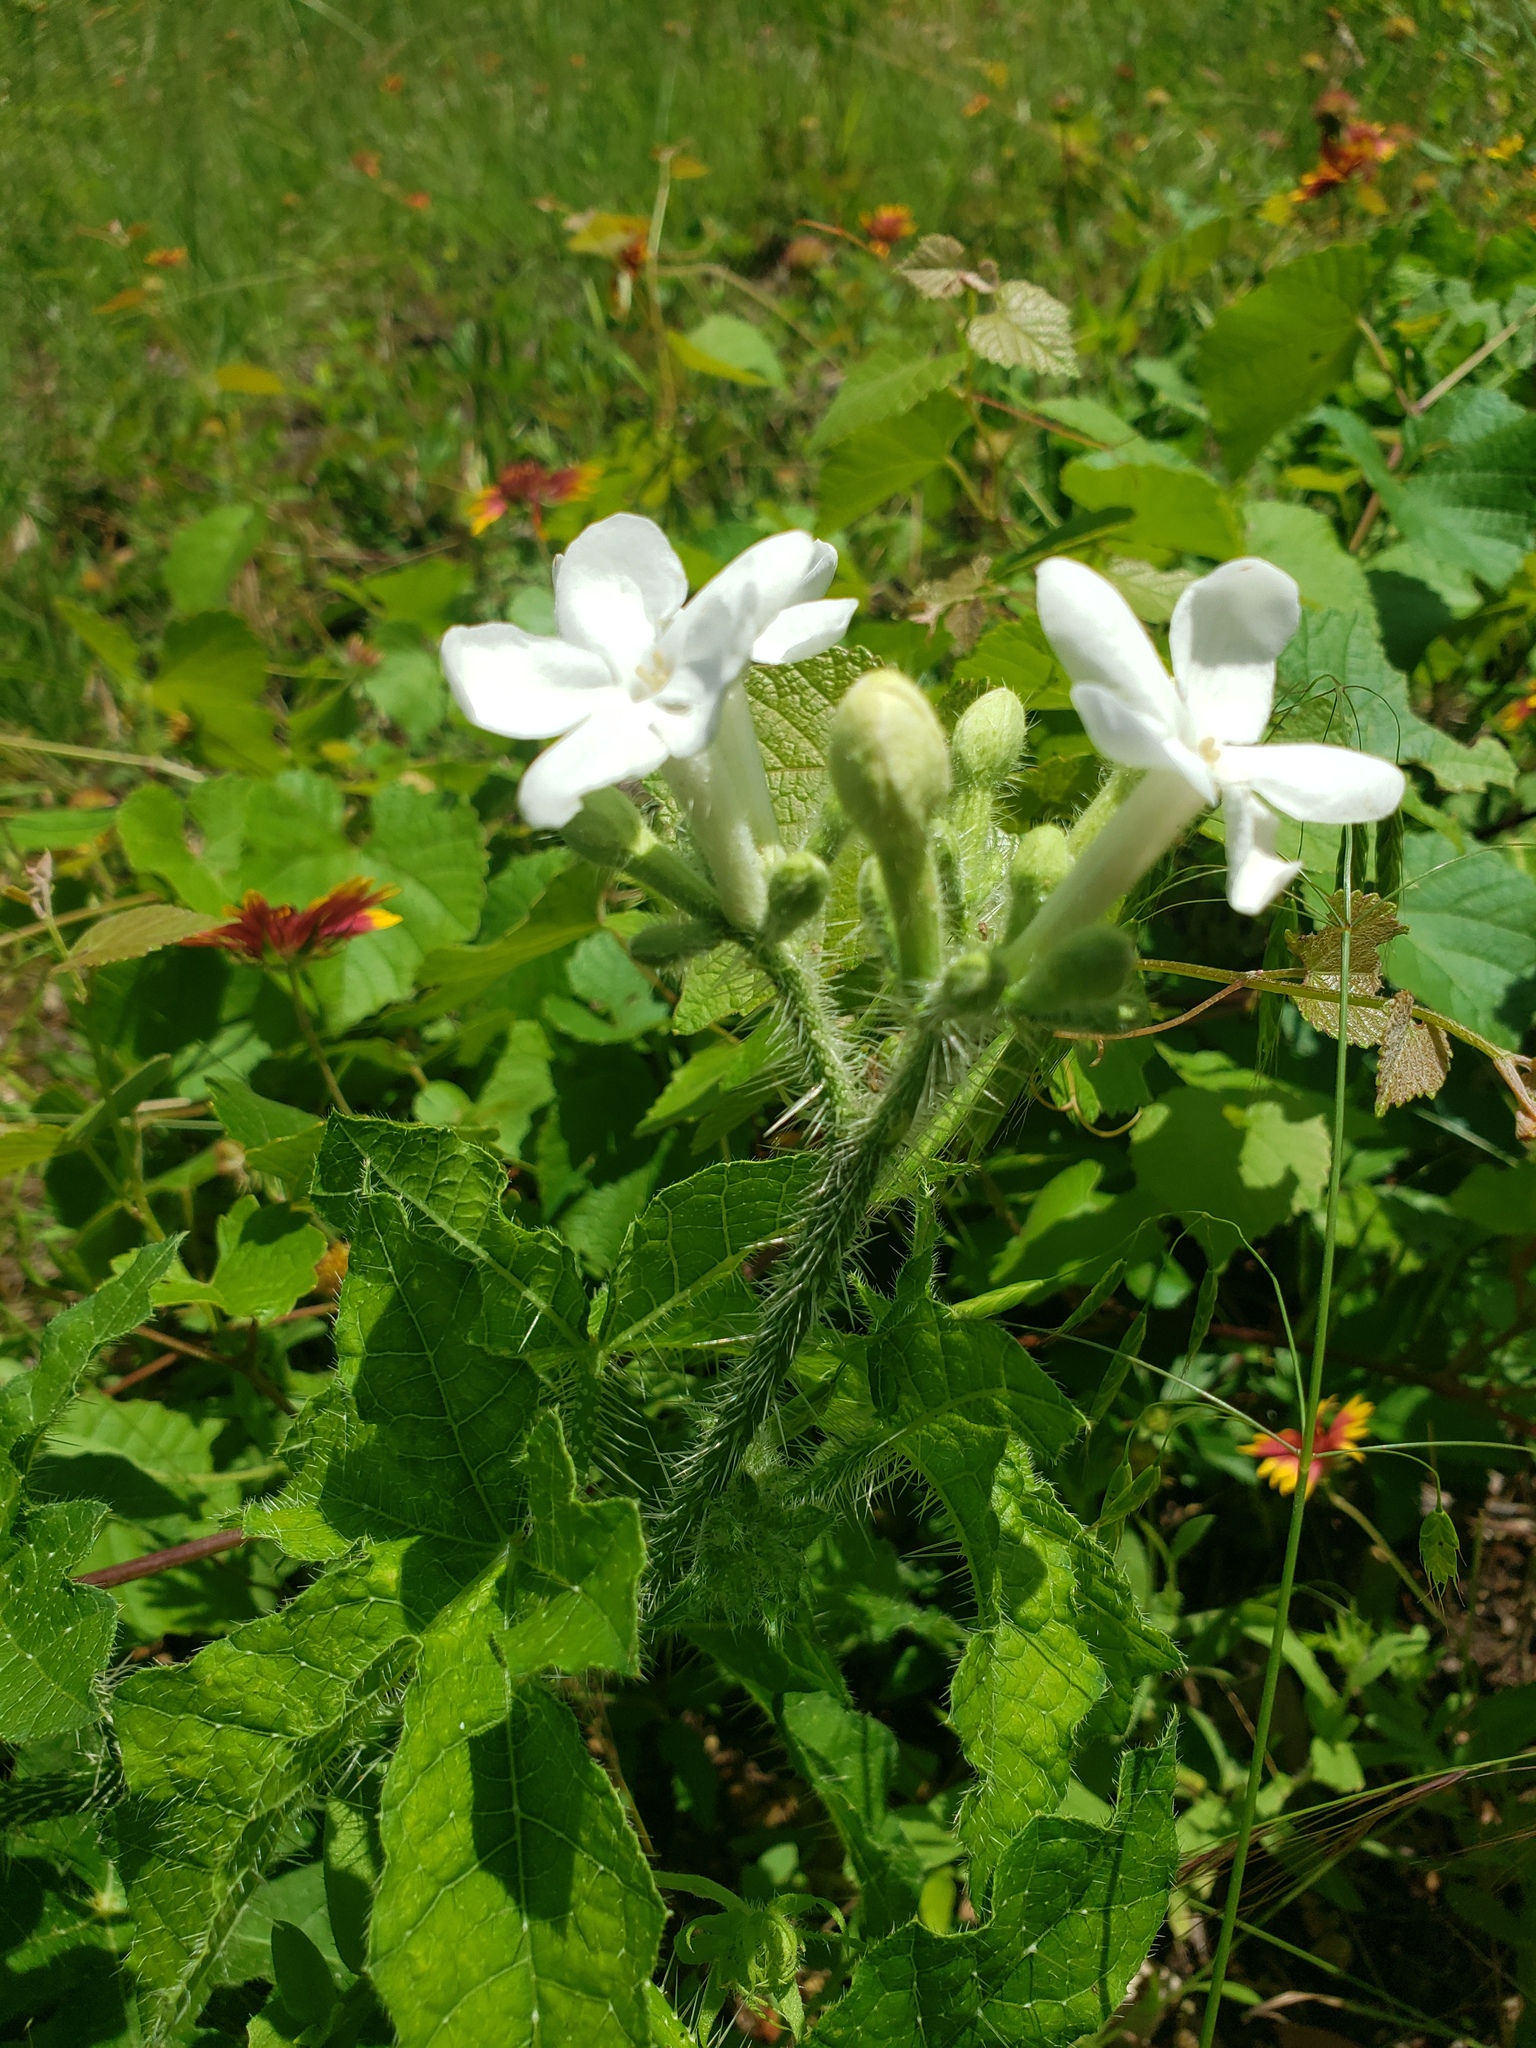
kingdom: Plantae
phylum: Tracheophyta
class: Magnoliopsida
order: Malpighiales
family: Euphorbiaceae
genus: Cnidoscolus
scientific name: Cnidoscolus texanus
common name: Texas bull-nettle
